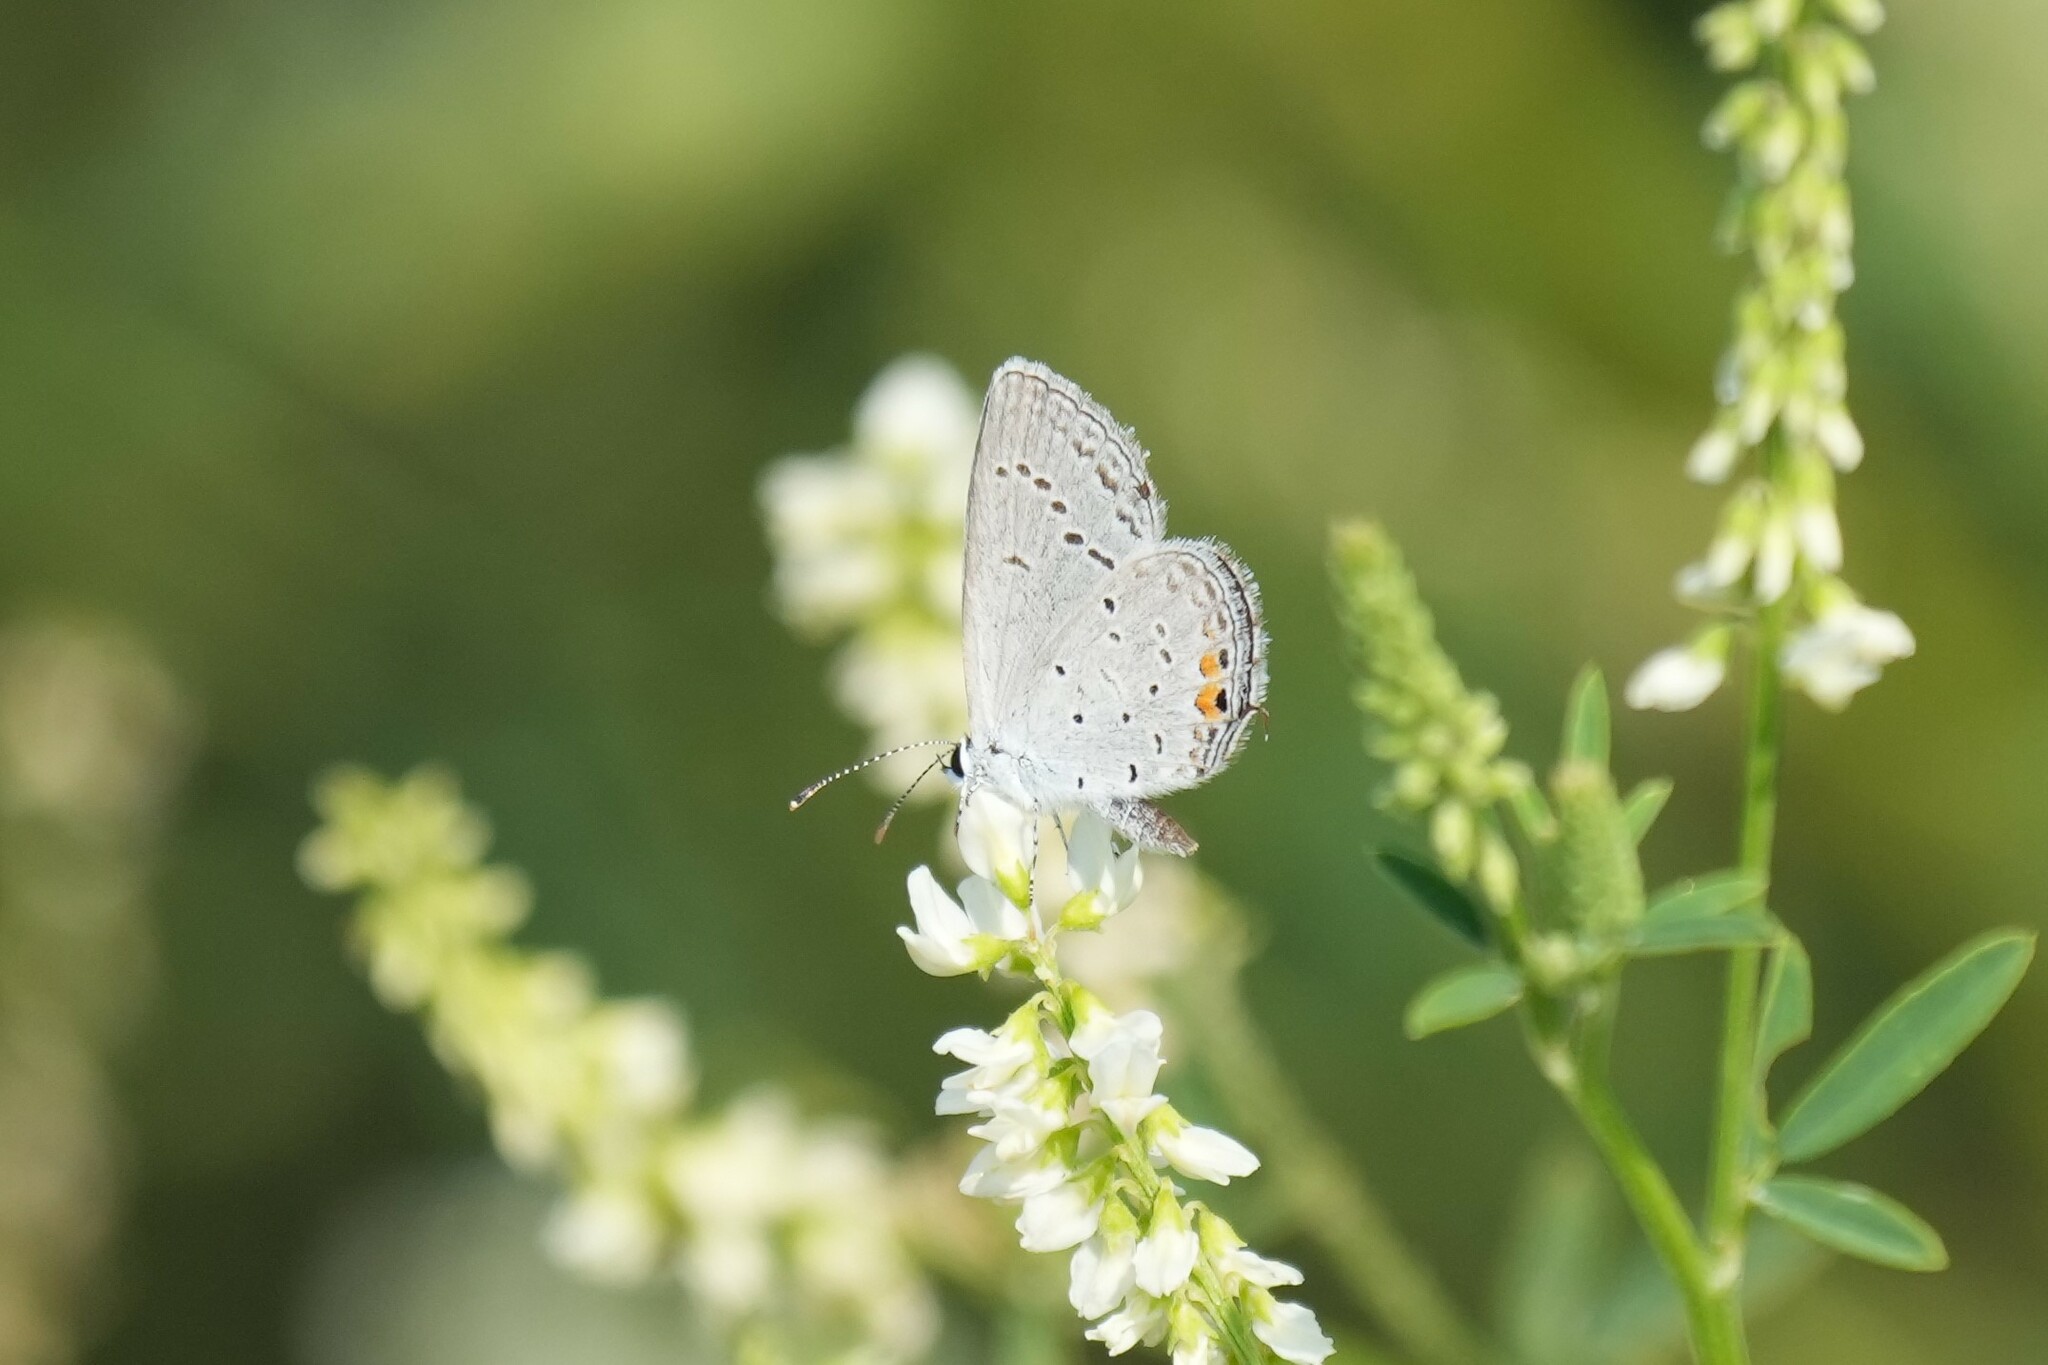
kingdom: Animalia
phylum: Arthropoda
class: Insecta
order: Lepidoptera
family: Lycaenidae
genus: Elkalyce
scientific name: Elkalyce comyntas
